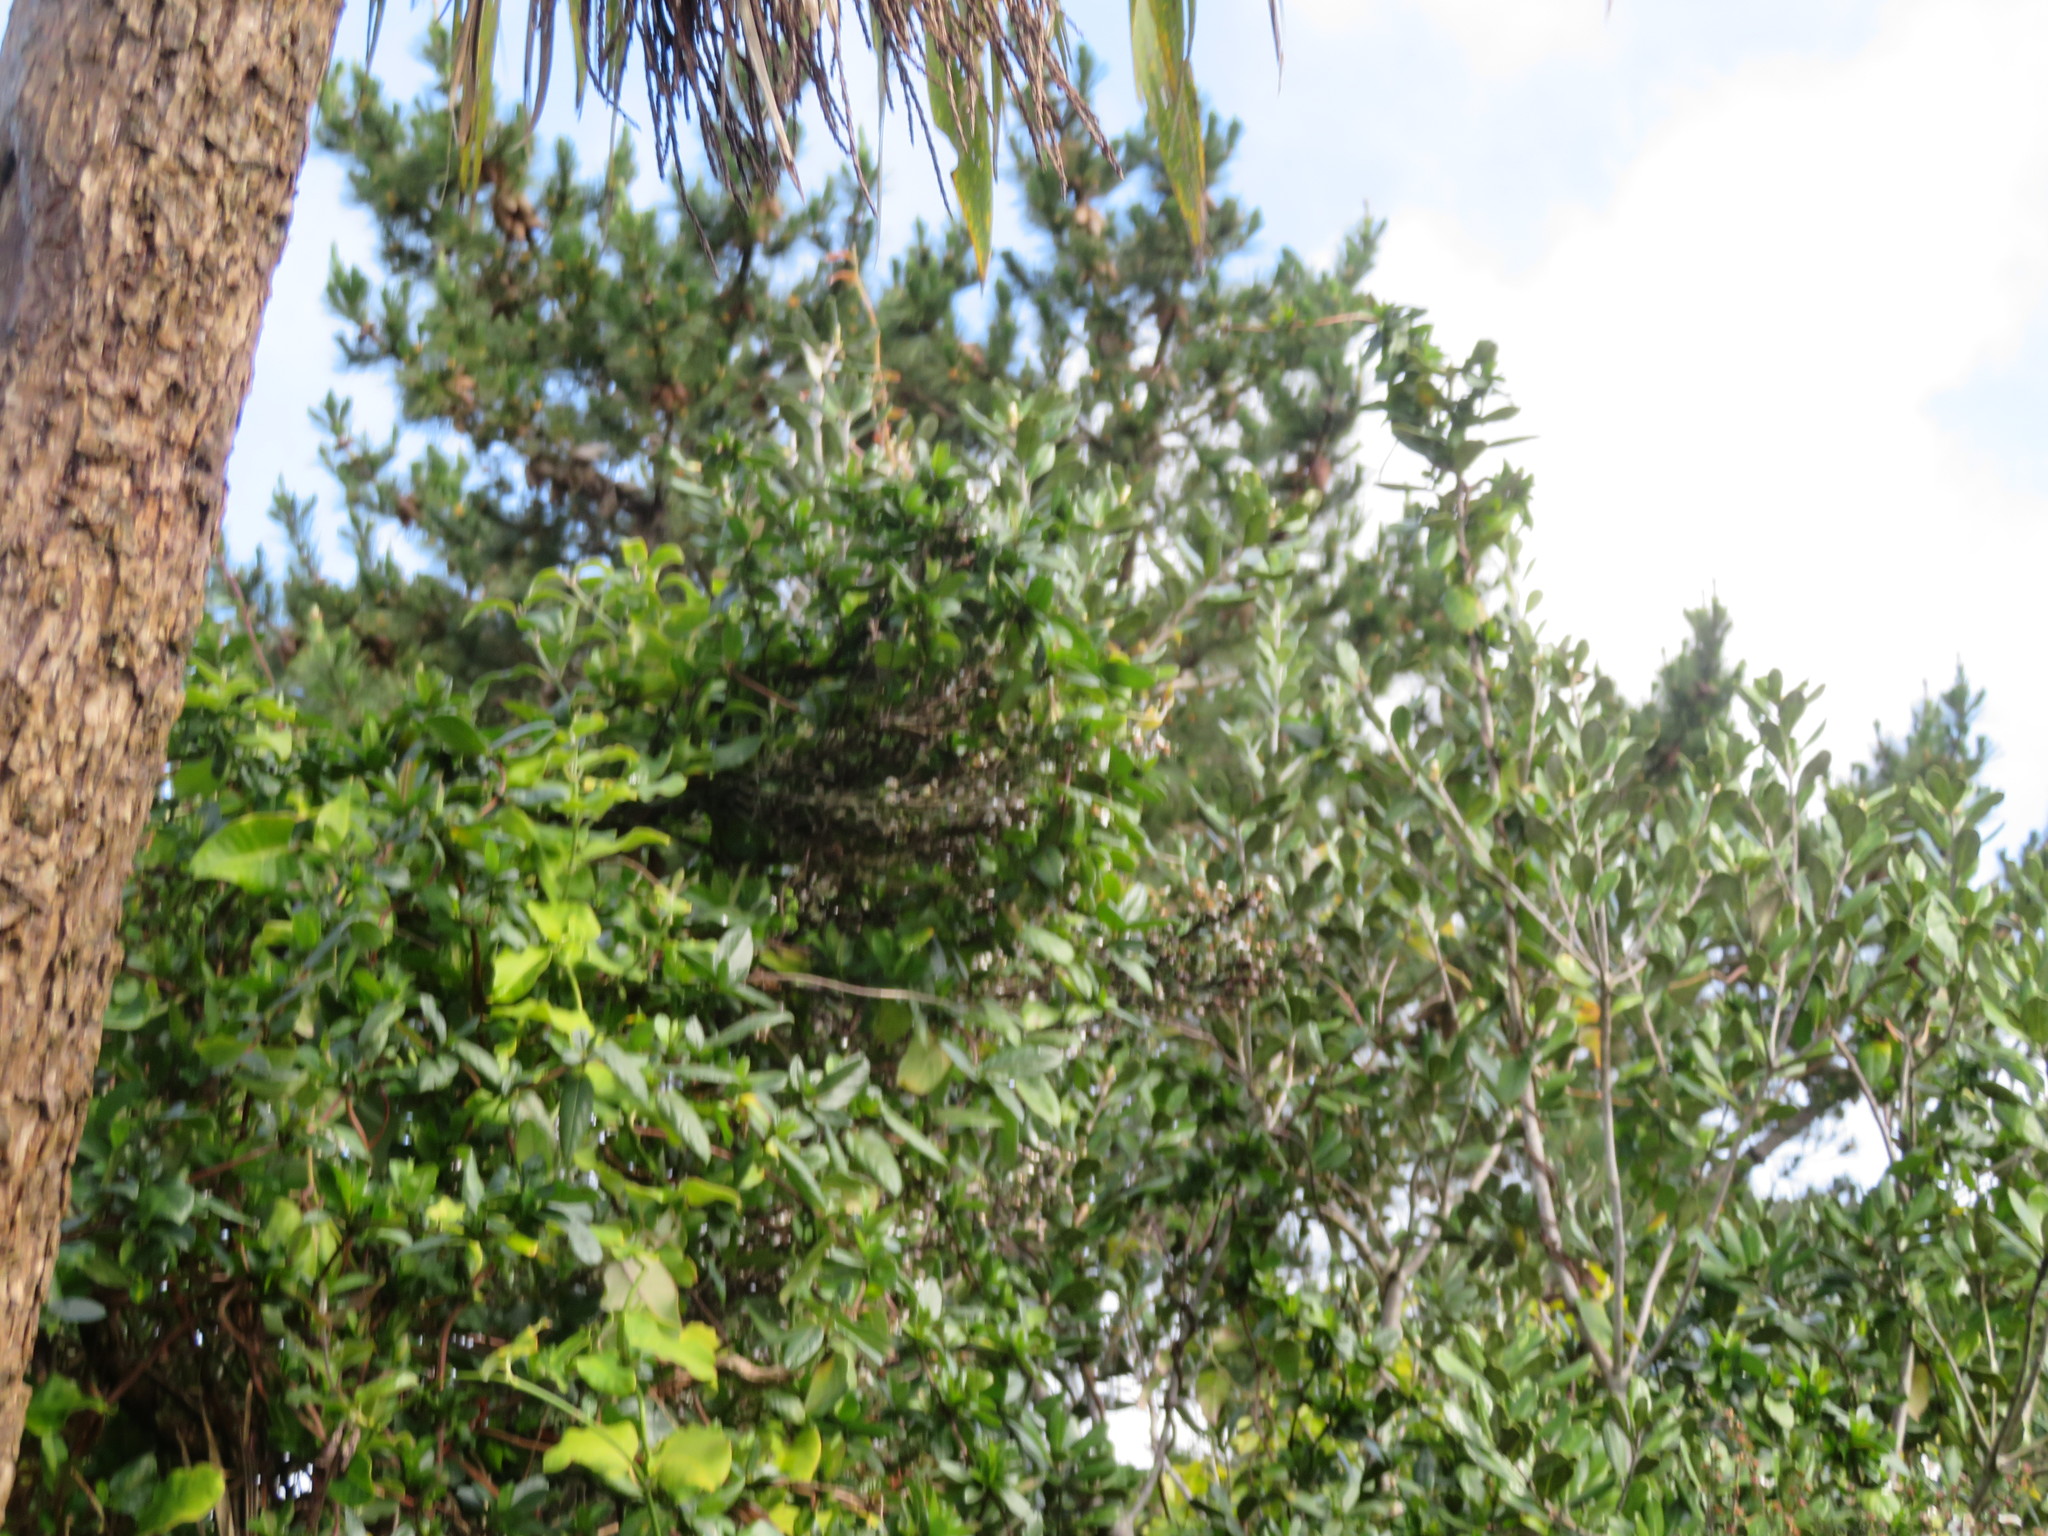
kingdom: Plantae
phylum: Tracheophyta
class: Magnoliopsida
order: Gentianales
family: Apocynaceae
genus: Araujia
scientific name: Araujia sericifera
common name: White bladderflower
